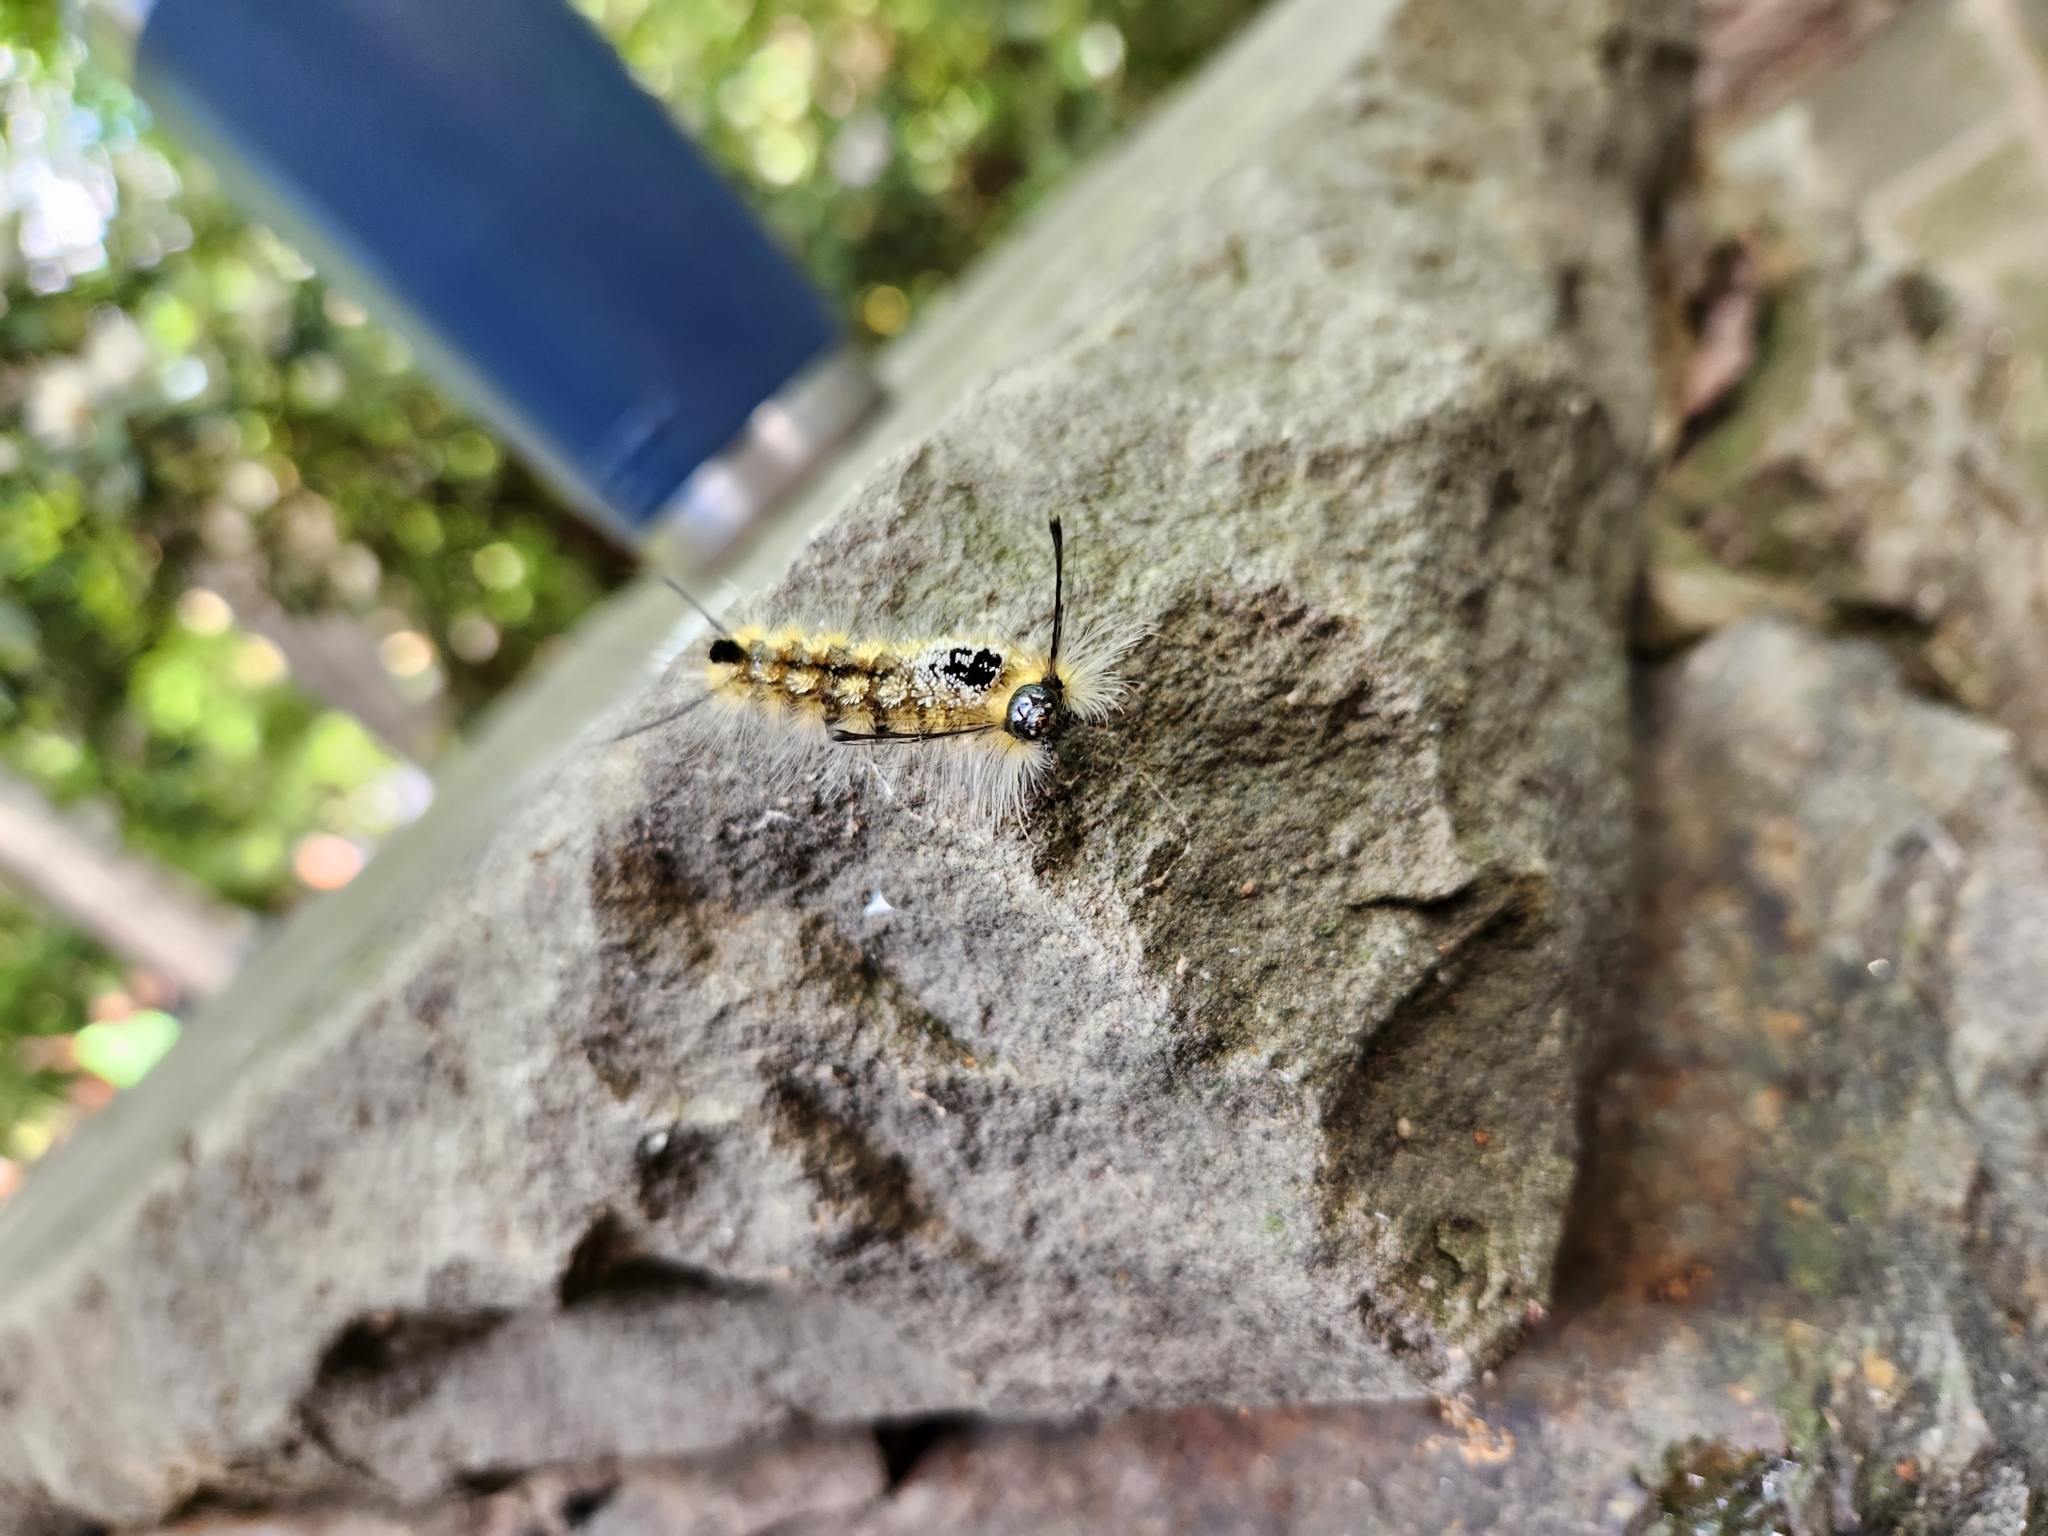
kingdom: Animalia
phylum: Arthropoda
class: Insecta
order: Lepidoptera
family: Erebidae
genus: Dasychira
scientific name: Dasychira basiflava
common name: Yellow-based tussock moth
